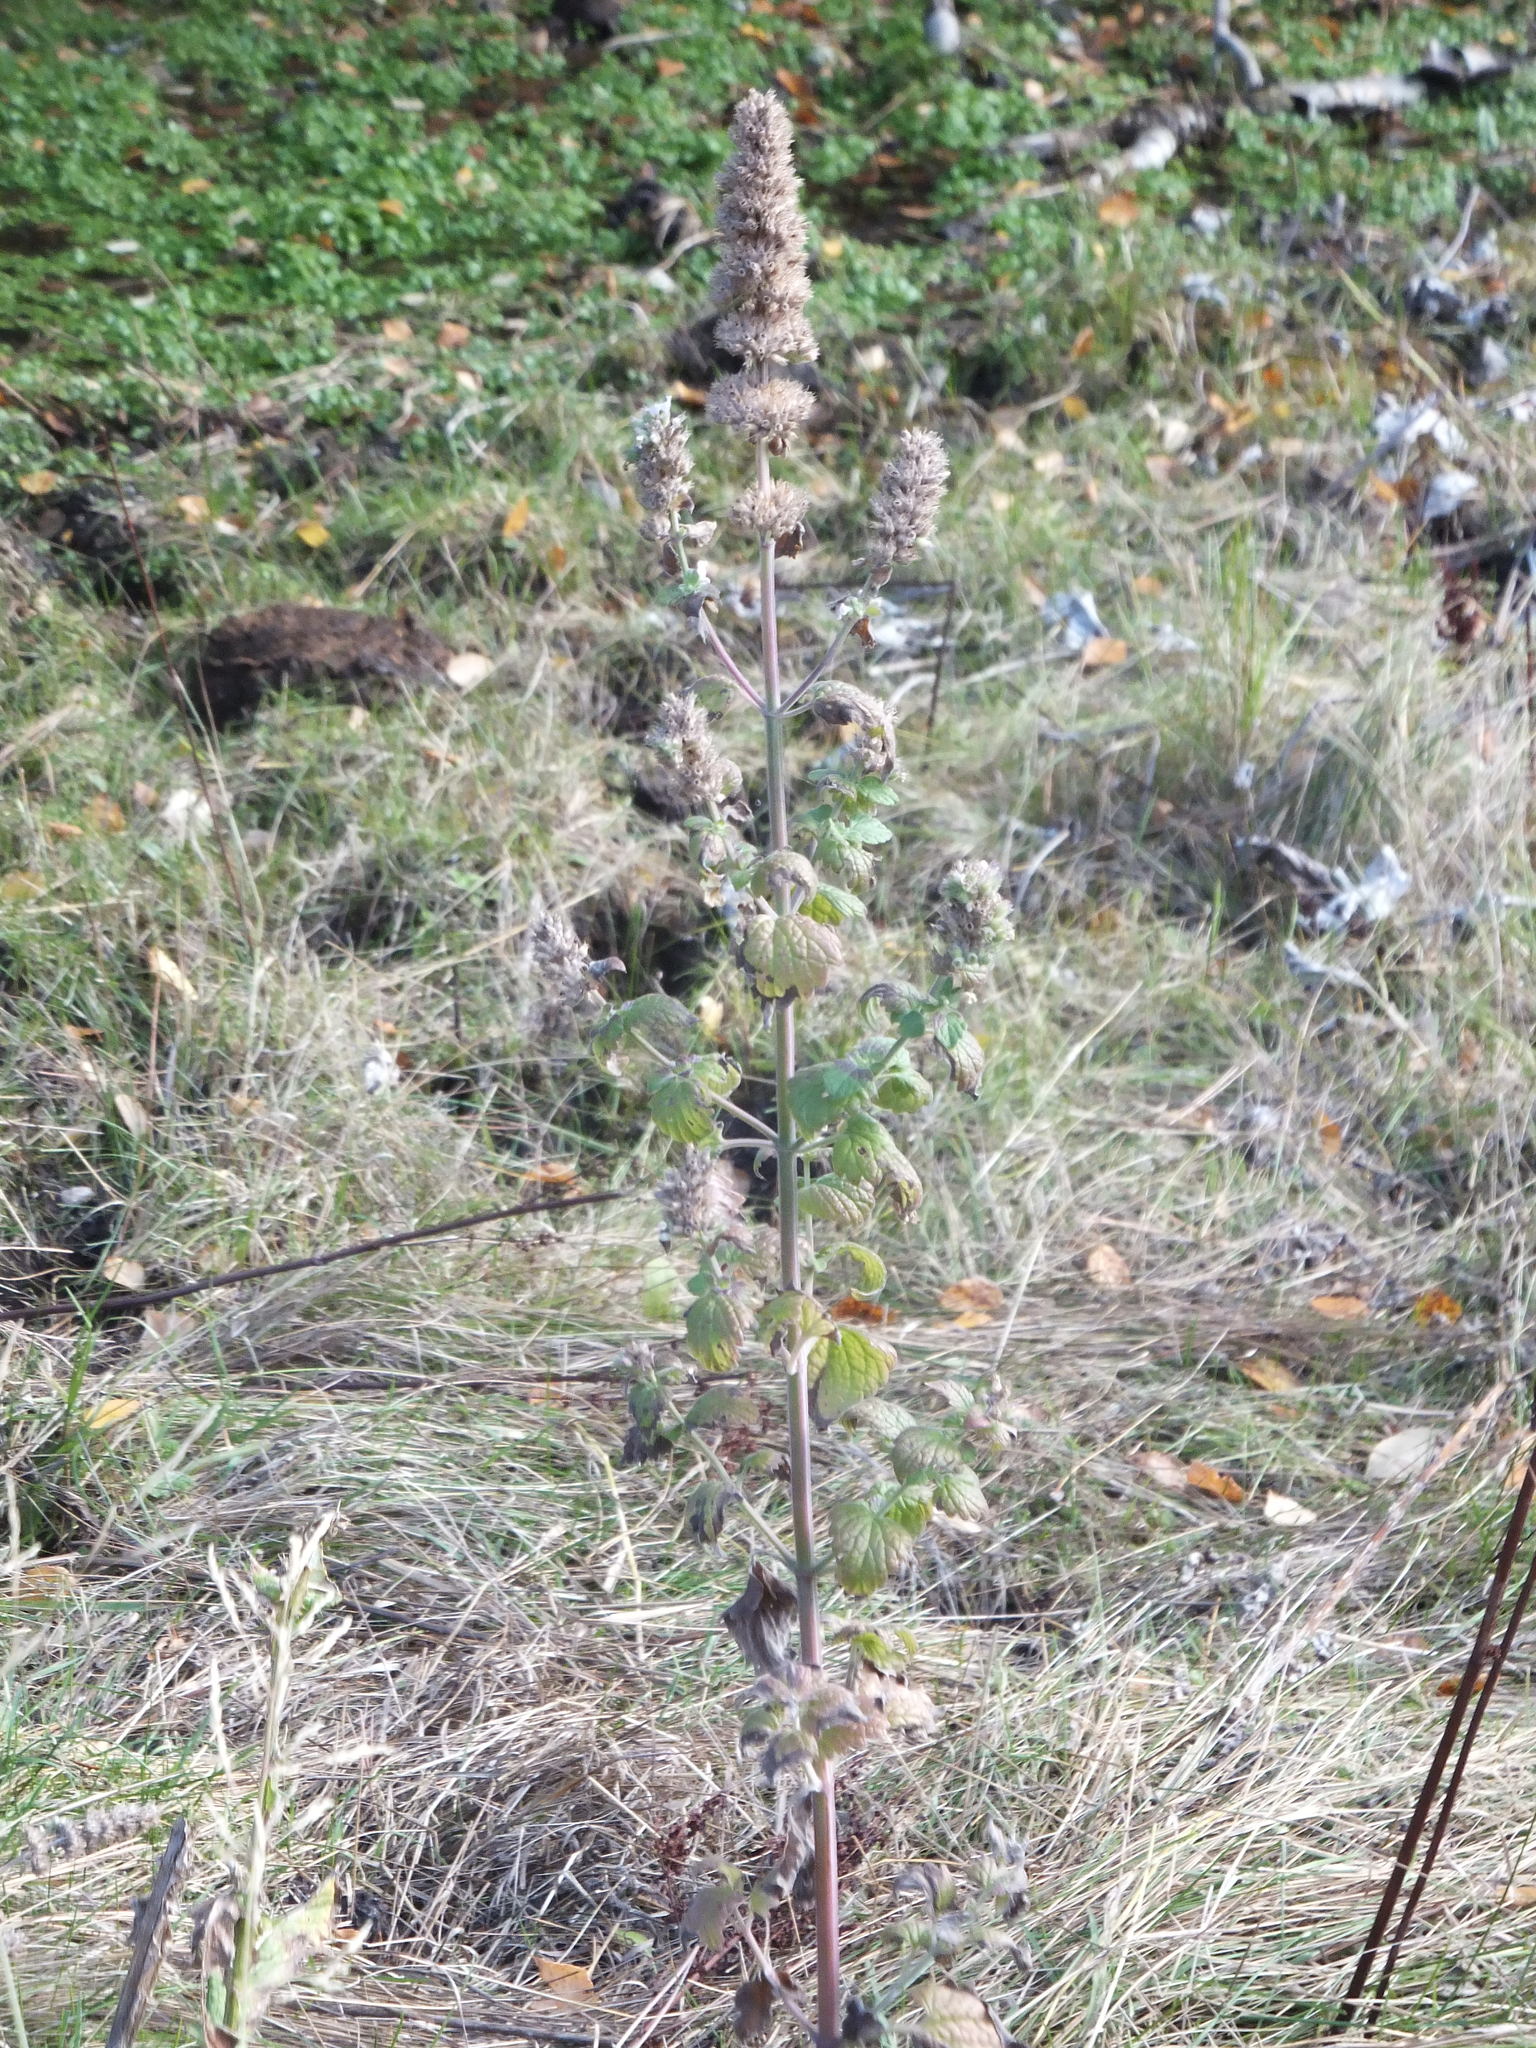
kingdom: Plantae
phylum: Tracheophyta
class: Magnoliopsida
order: Lamiales
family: Lamiaceae
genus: Nepeta
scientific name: Nepeta cataria
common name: Catnip
